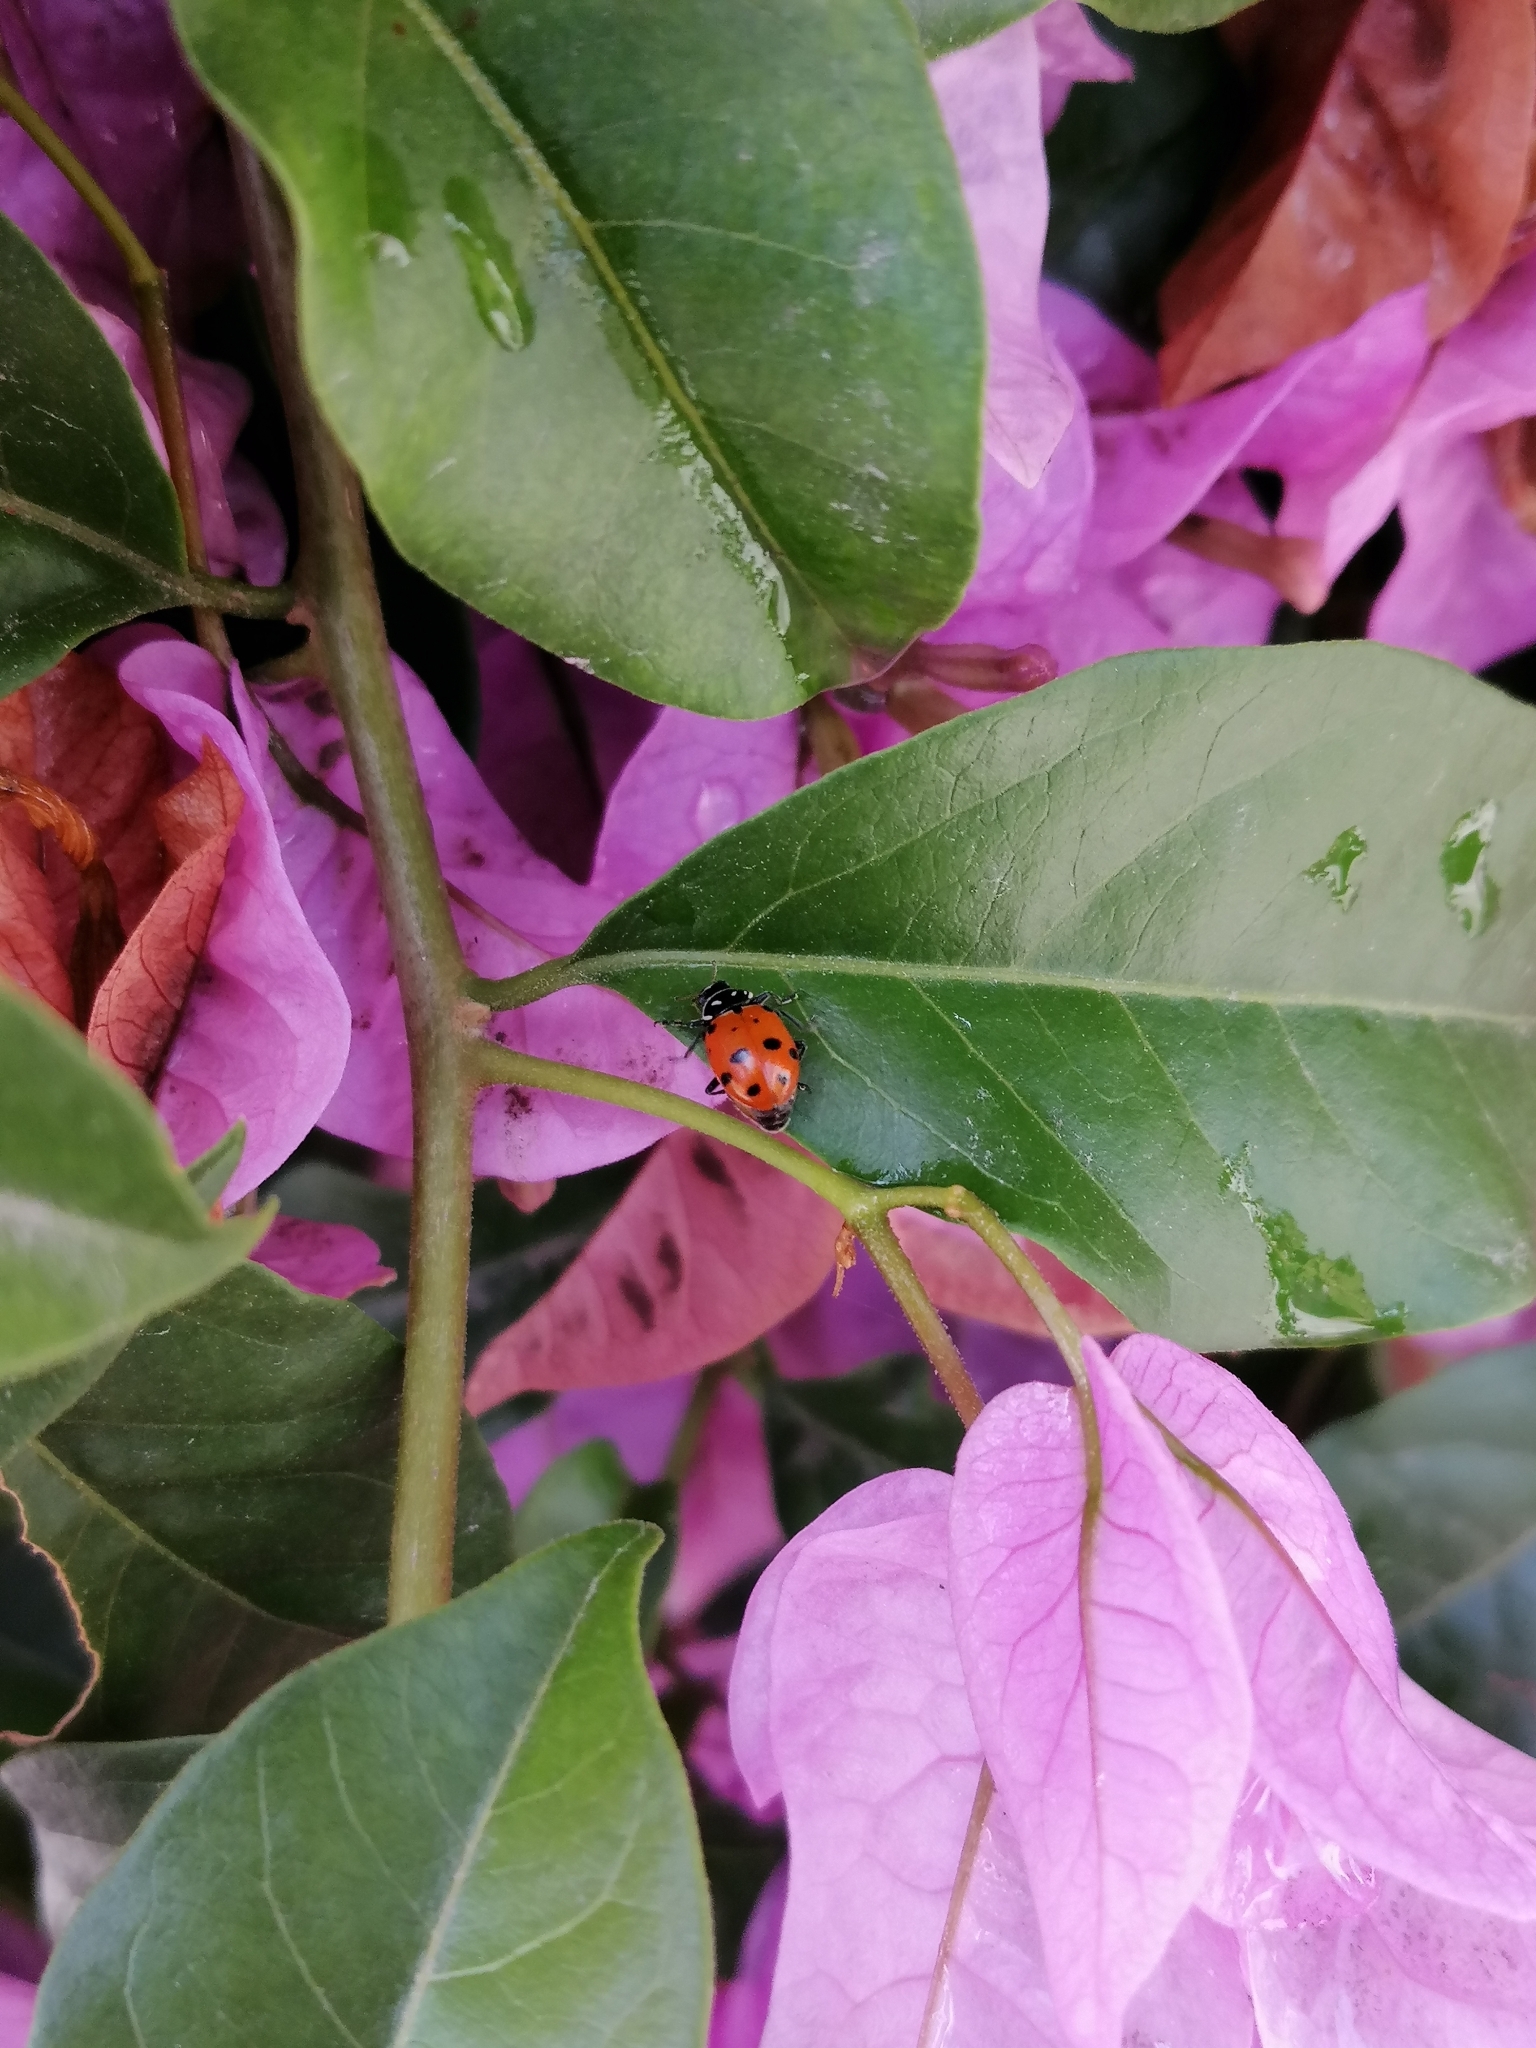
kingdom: Animalia
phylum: Arthropoda
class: Insecta
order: Coleoptera
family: Coccinellidae
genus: Hippodamia
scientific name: Hippodamia convergens
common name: Convergent lady beetle
